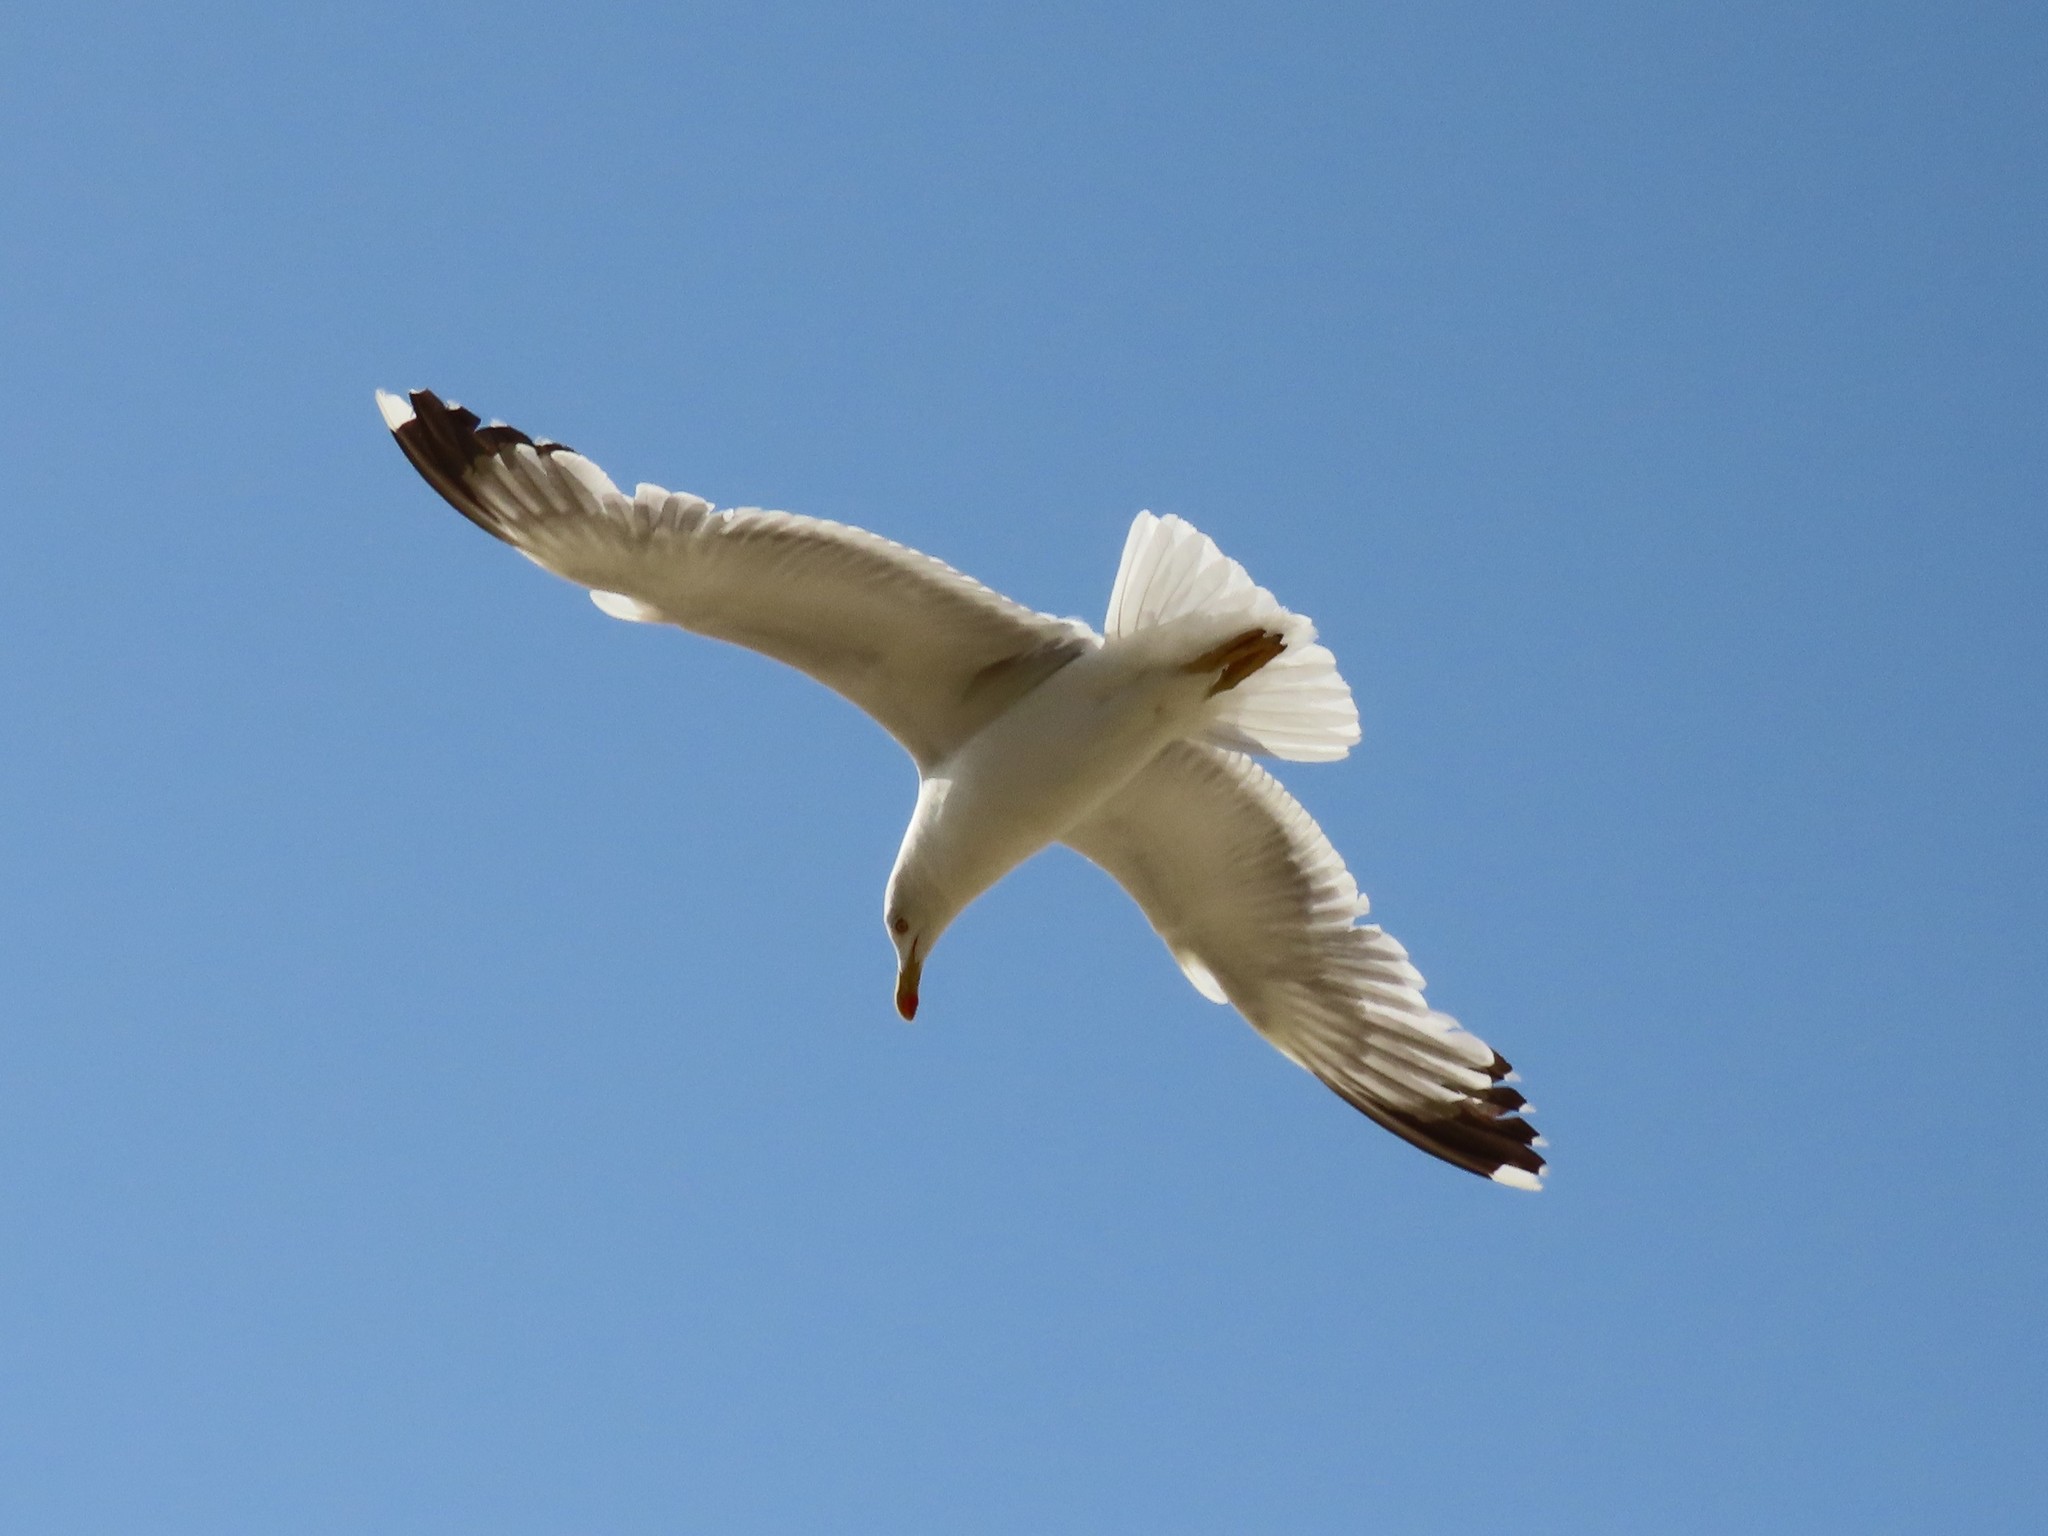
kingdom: Animalia
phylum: Chordata
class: Aves
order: Charadriiformes
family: Laridae
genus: Larus
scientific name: Larus michahellis
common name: Yellow-legged gull
